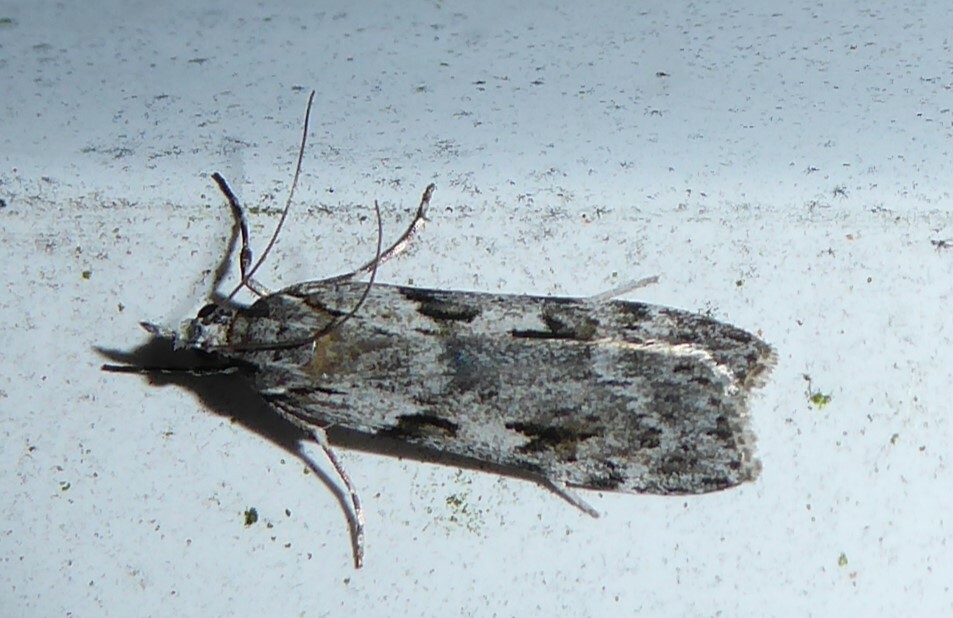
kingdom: Animalia
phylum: Arthropoda
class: Insecta
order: Lepidoptera
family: Crambidae
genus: Scoparia
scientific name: Scoparia halopis
